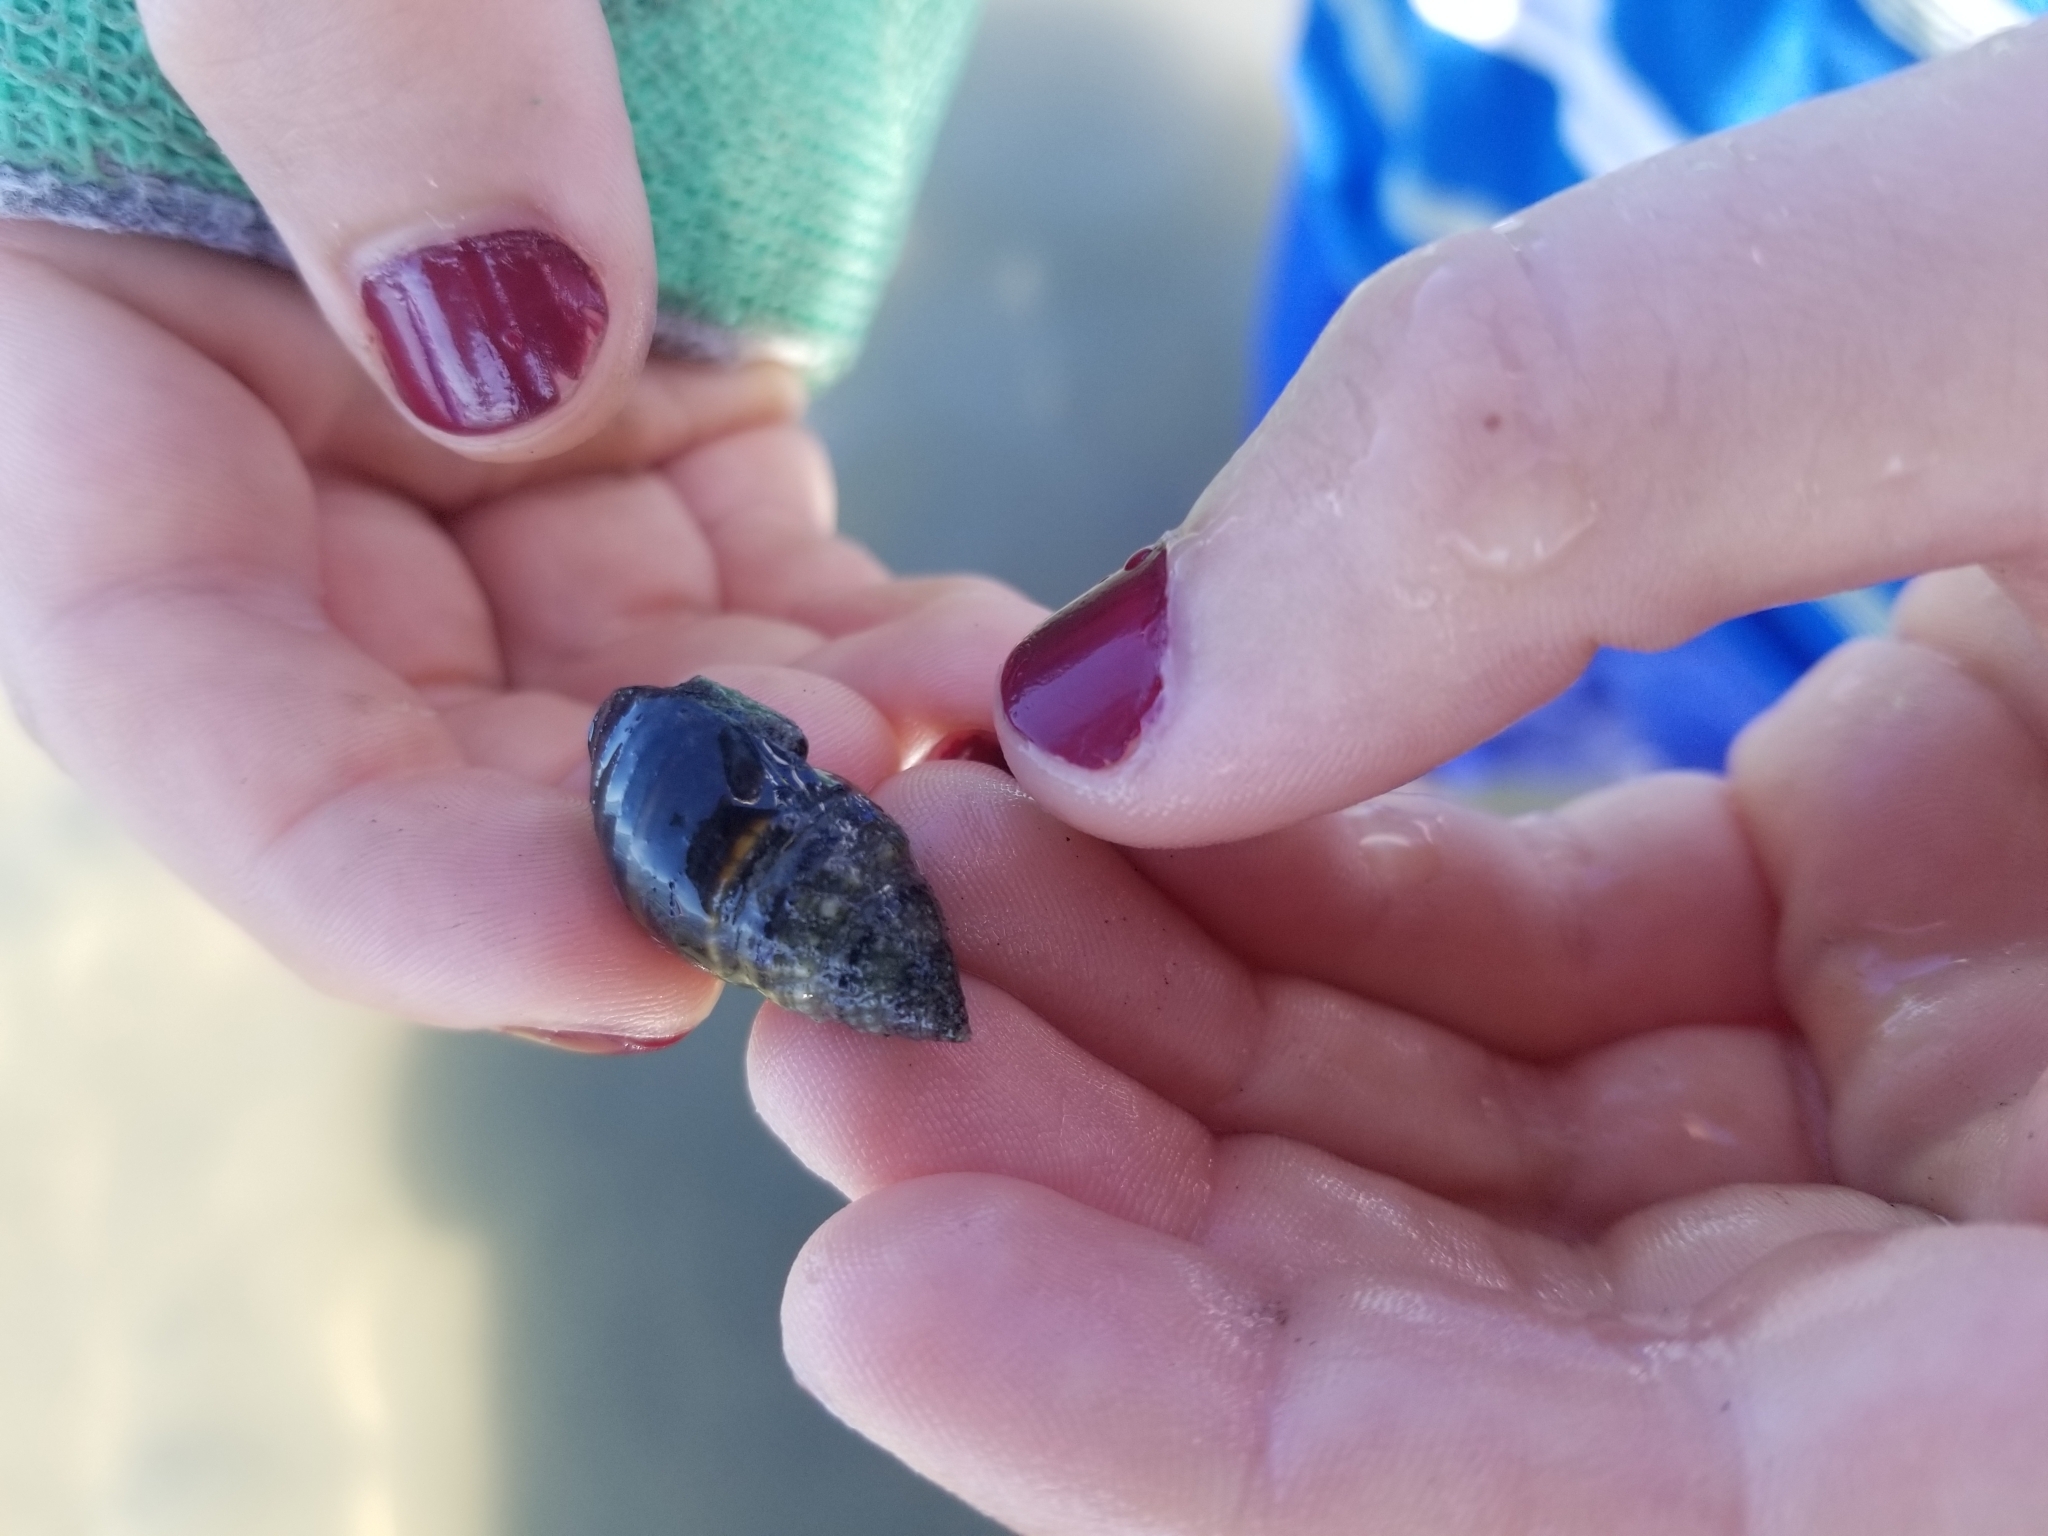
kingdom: Animalia
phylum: Mollusca
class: Gastropoda
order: Neogastropoda
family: Nassariidae
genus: Ilyanassa
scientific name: Ilyanassa obsoleta
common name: Eastern mudsnail
